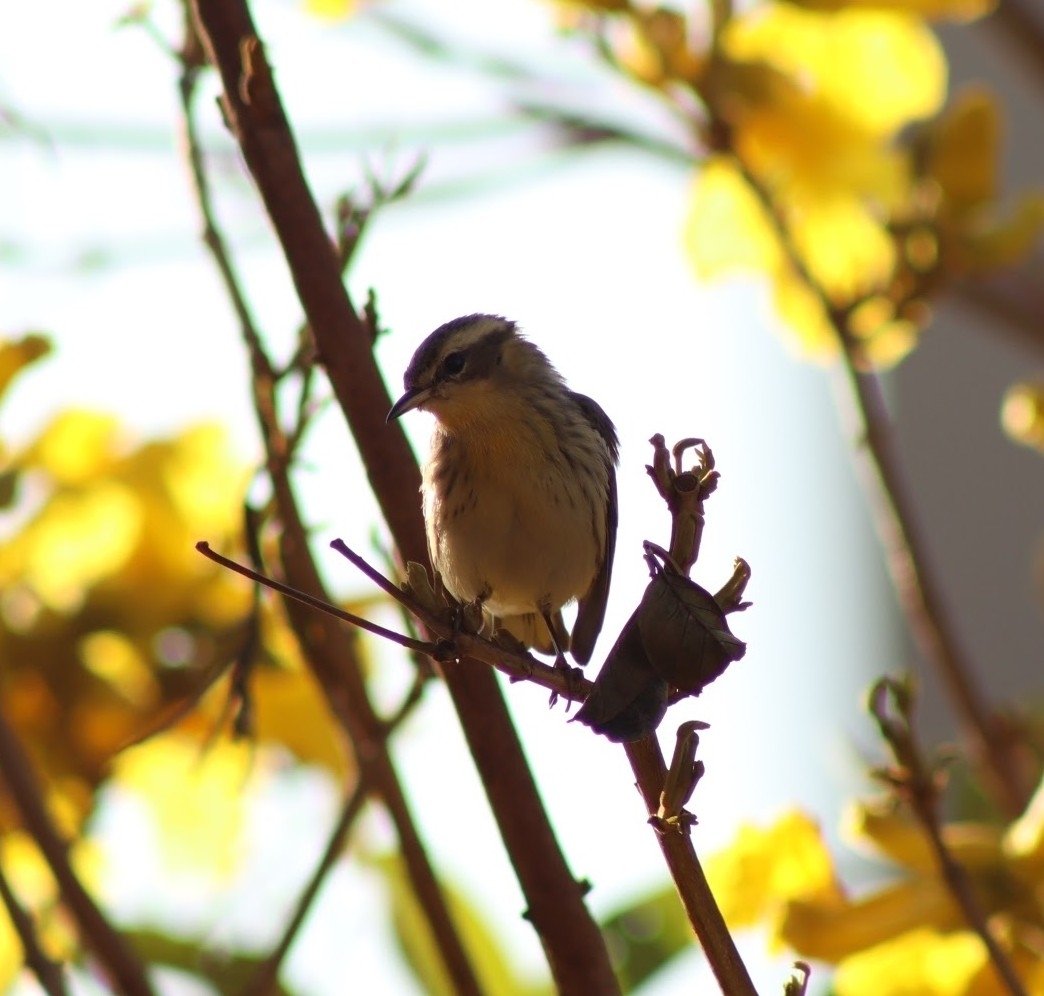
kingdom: Animalia
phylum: Chordata
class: Aves
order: Passeriformes
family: Parulidae
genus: Setophaga
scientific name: Setophaga fusca
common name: Blackburnian warbler
